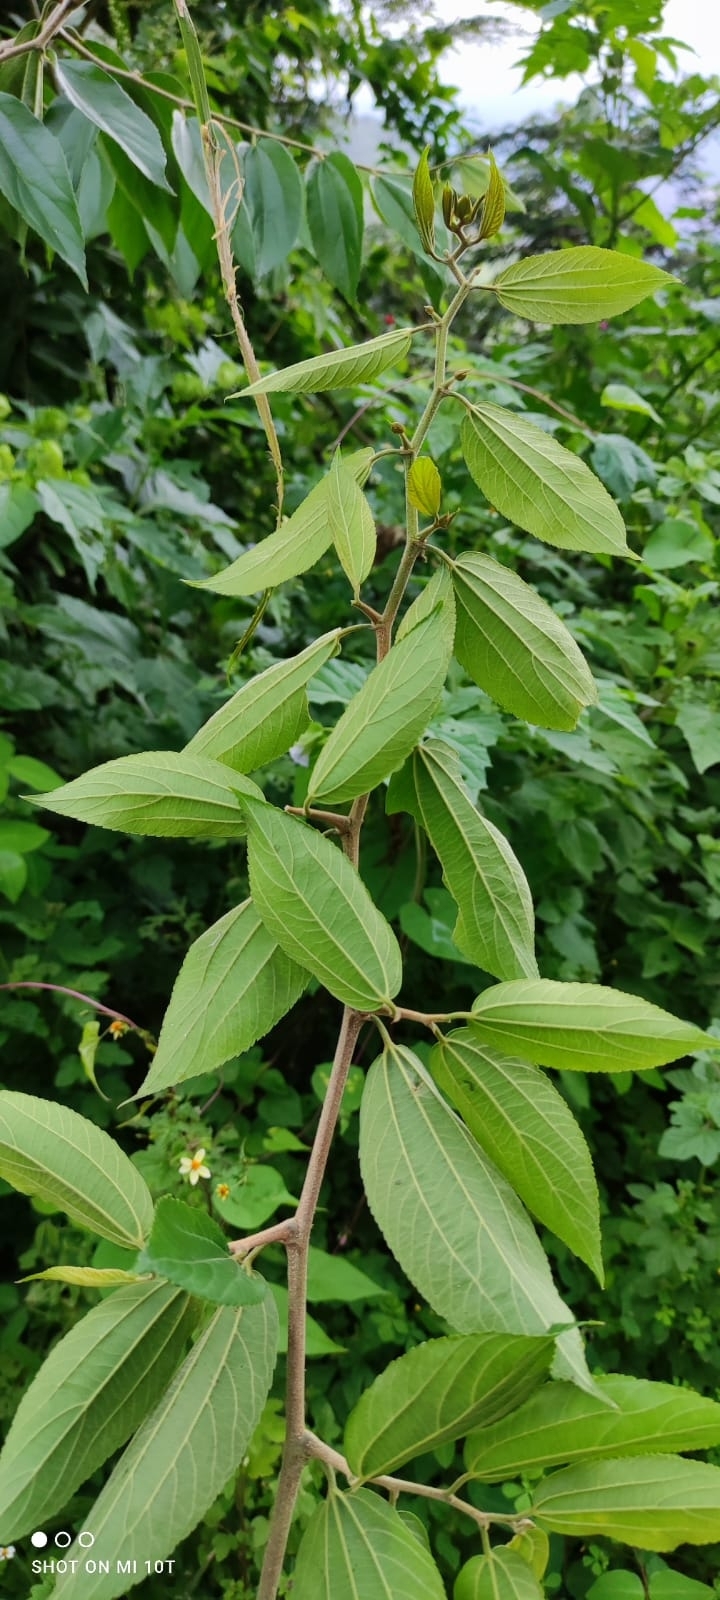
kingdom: Plantae
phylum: Tracheophyta
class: Magnoliopsida
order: Rosales
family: Cannabaceae
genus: Celtis
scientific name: Celtis iguanaea
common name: Iguana hackberry
